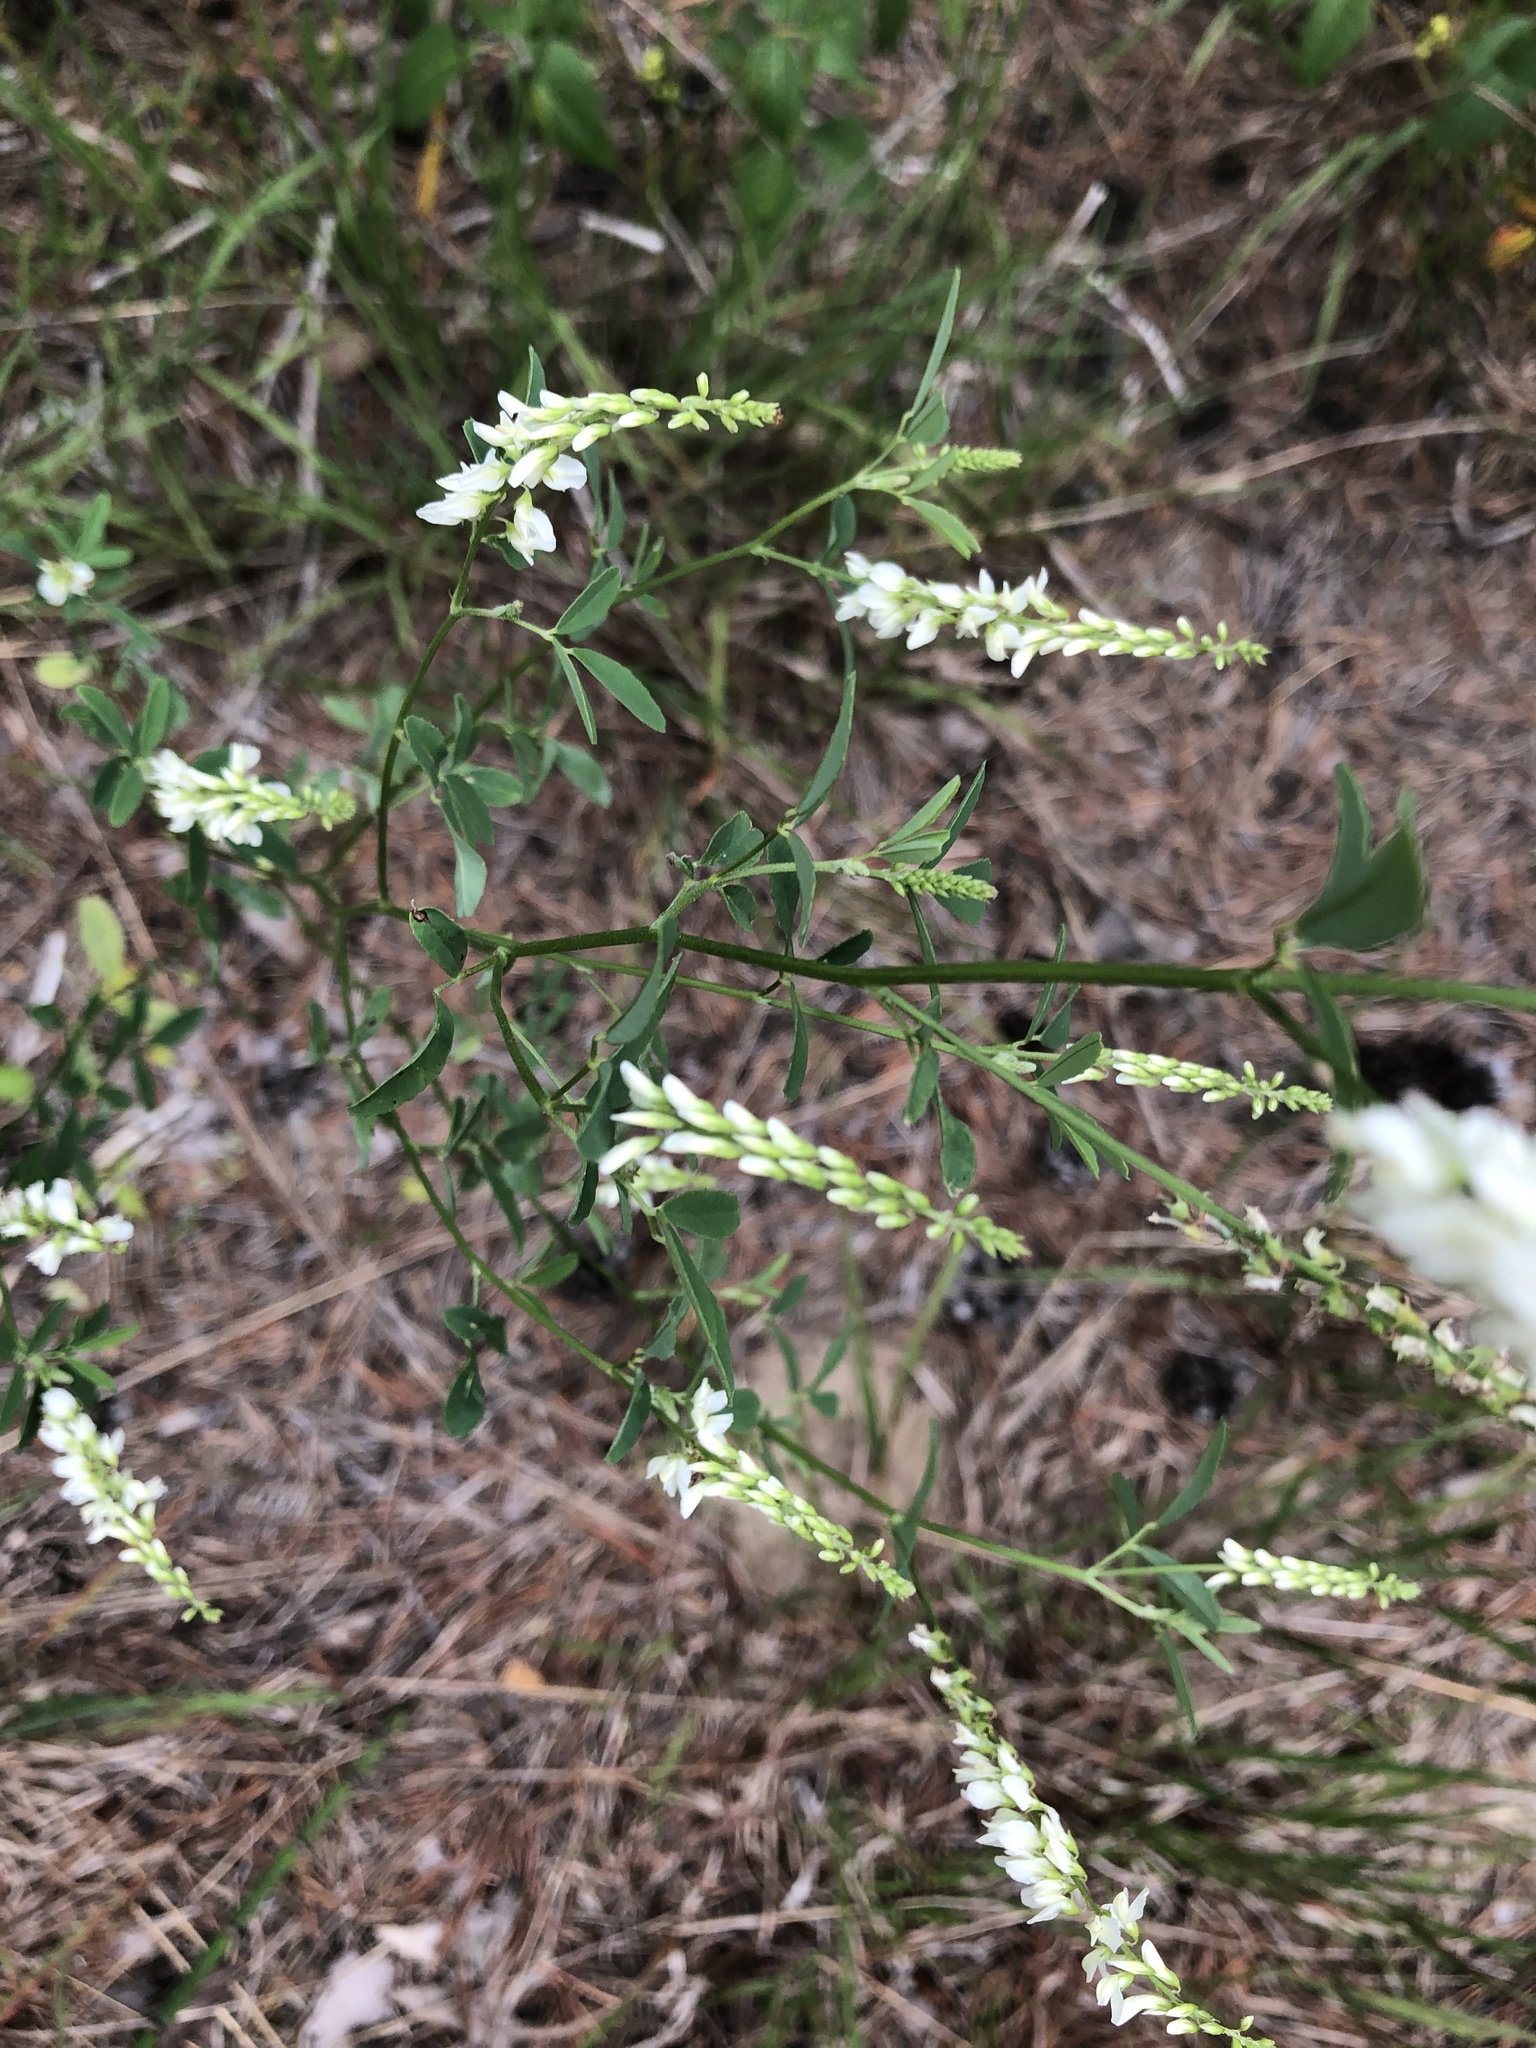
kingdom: Plantae
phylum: Tracheophyta
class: Magnoliopsida
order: Fabales
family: Fabaceae
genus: Melilotus
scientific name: Melilotus albus
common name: White melilot
